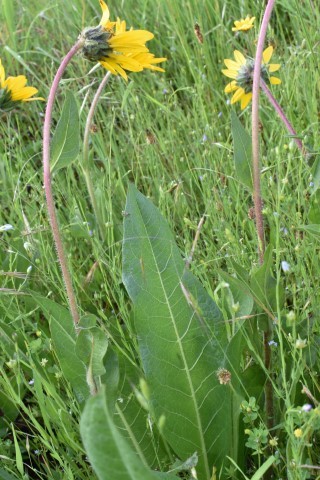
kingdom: Plantae
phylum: Tracheophyta
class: Magnoliopsida
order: Asterales
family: Asteraceae
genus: Wyethia
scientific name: Wyethia angustifolia
